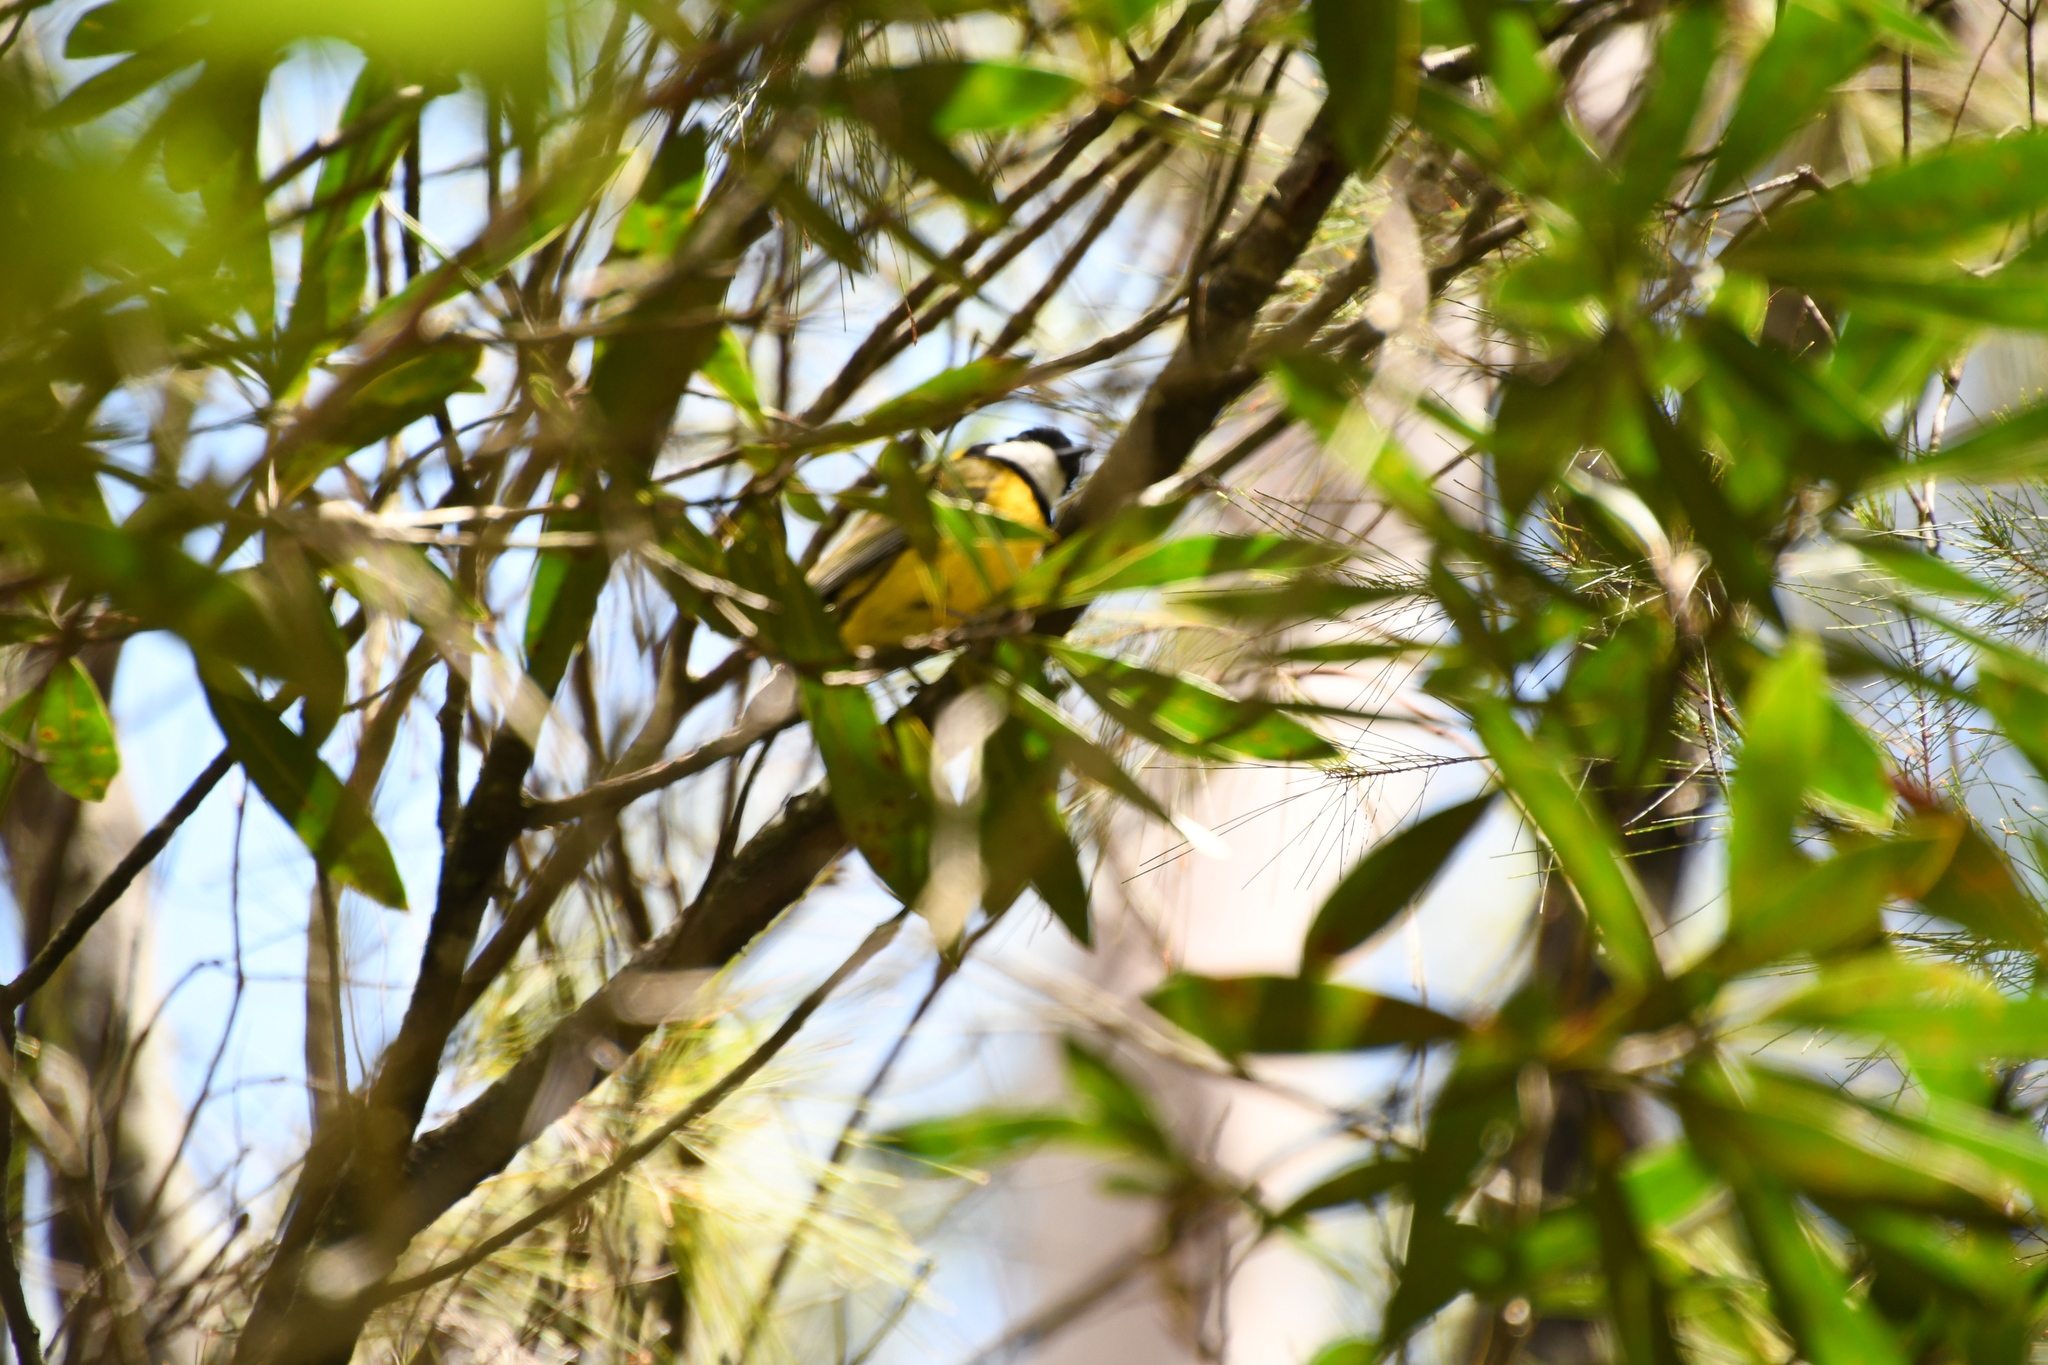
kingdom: Animalia
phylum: Chordata
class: Aves
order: Passeriformes
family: Pachycephalidae
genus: Pachycephala
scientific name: Pachycephala pectoralis
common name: Australian golden whistler
